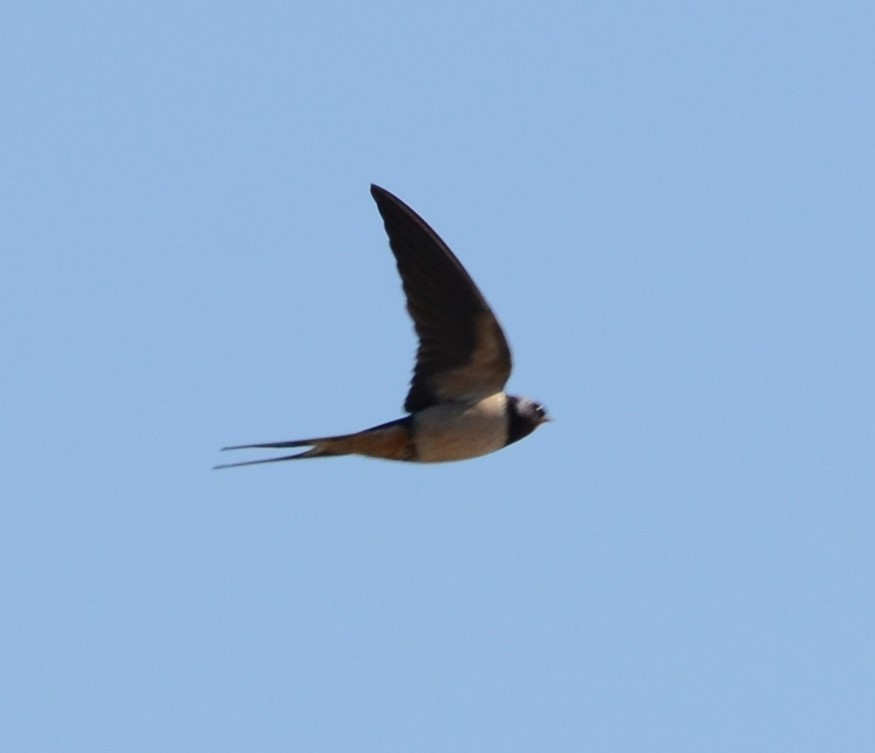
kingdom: Animalia
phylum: Chordata
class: Aves
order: Passeriformes
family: Hirundinidae
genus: Hirundo
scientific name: Hirundo rustica
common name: Barn swallow
